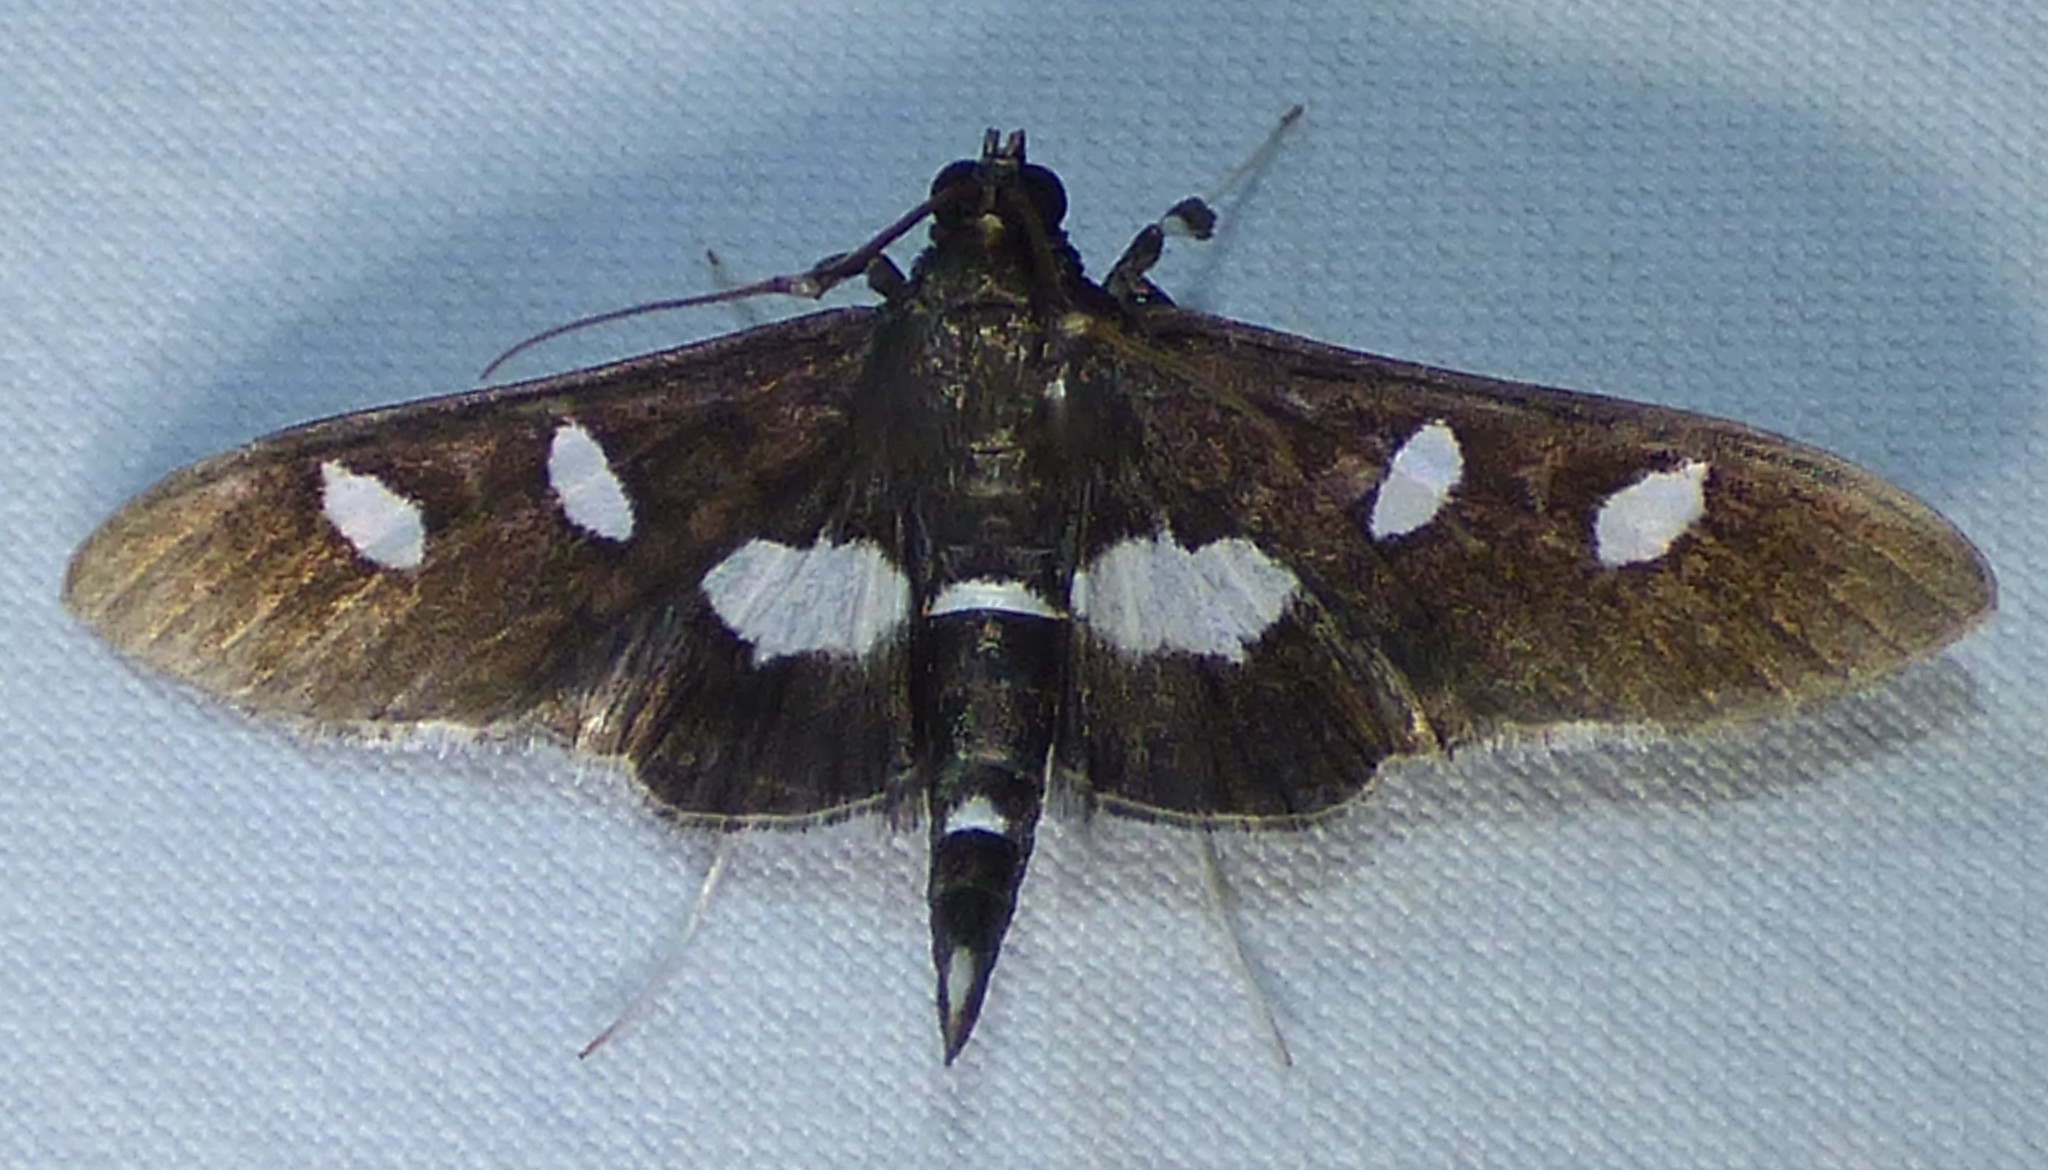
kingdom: Animalia
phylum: Arthropoda
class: Insecta
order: Lepidoptera
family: Crambidae
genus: Desmia
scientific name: Desmia funeralis
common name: Grape leaf folder moth
